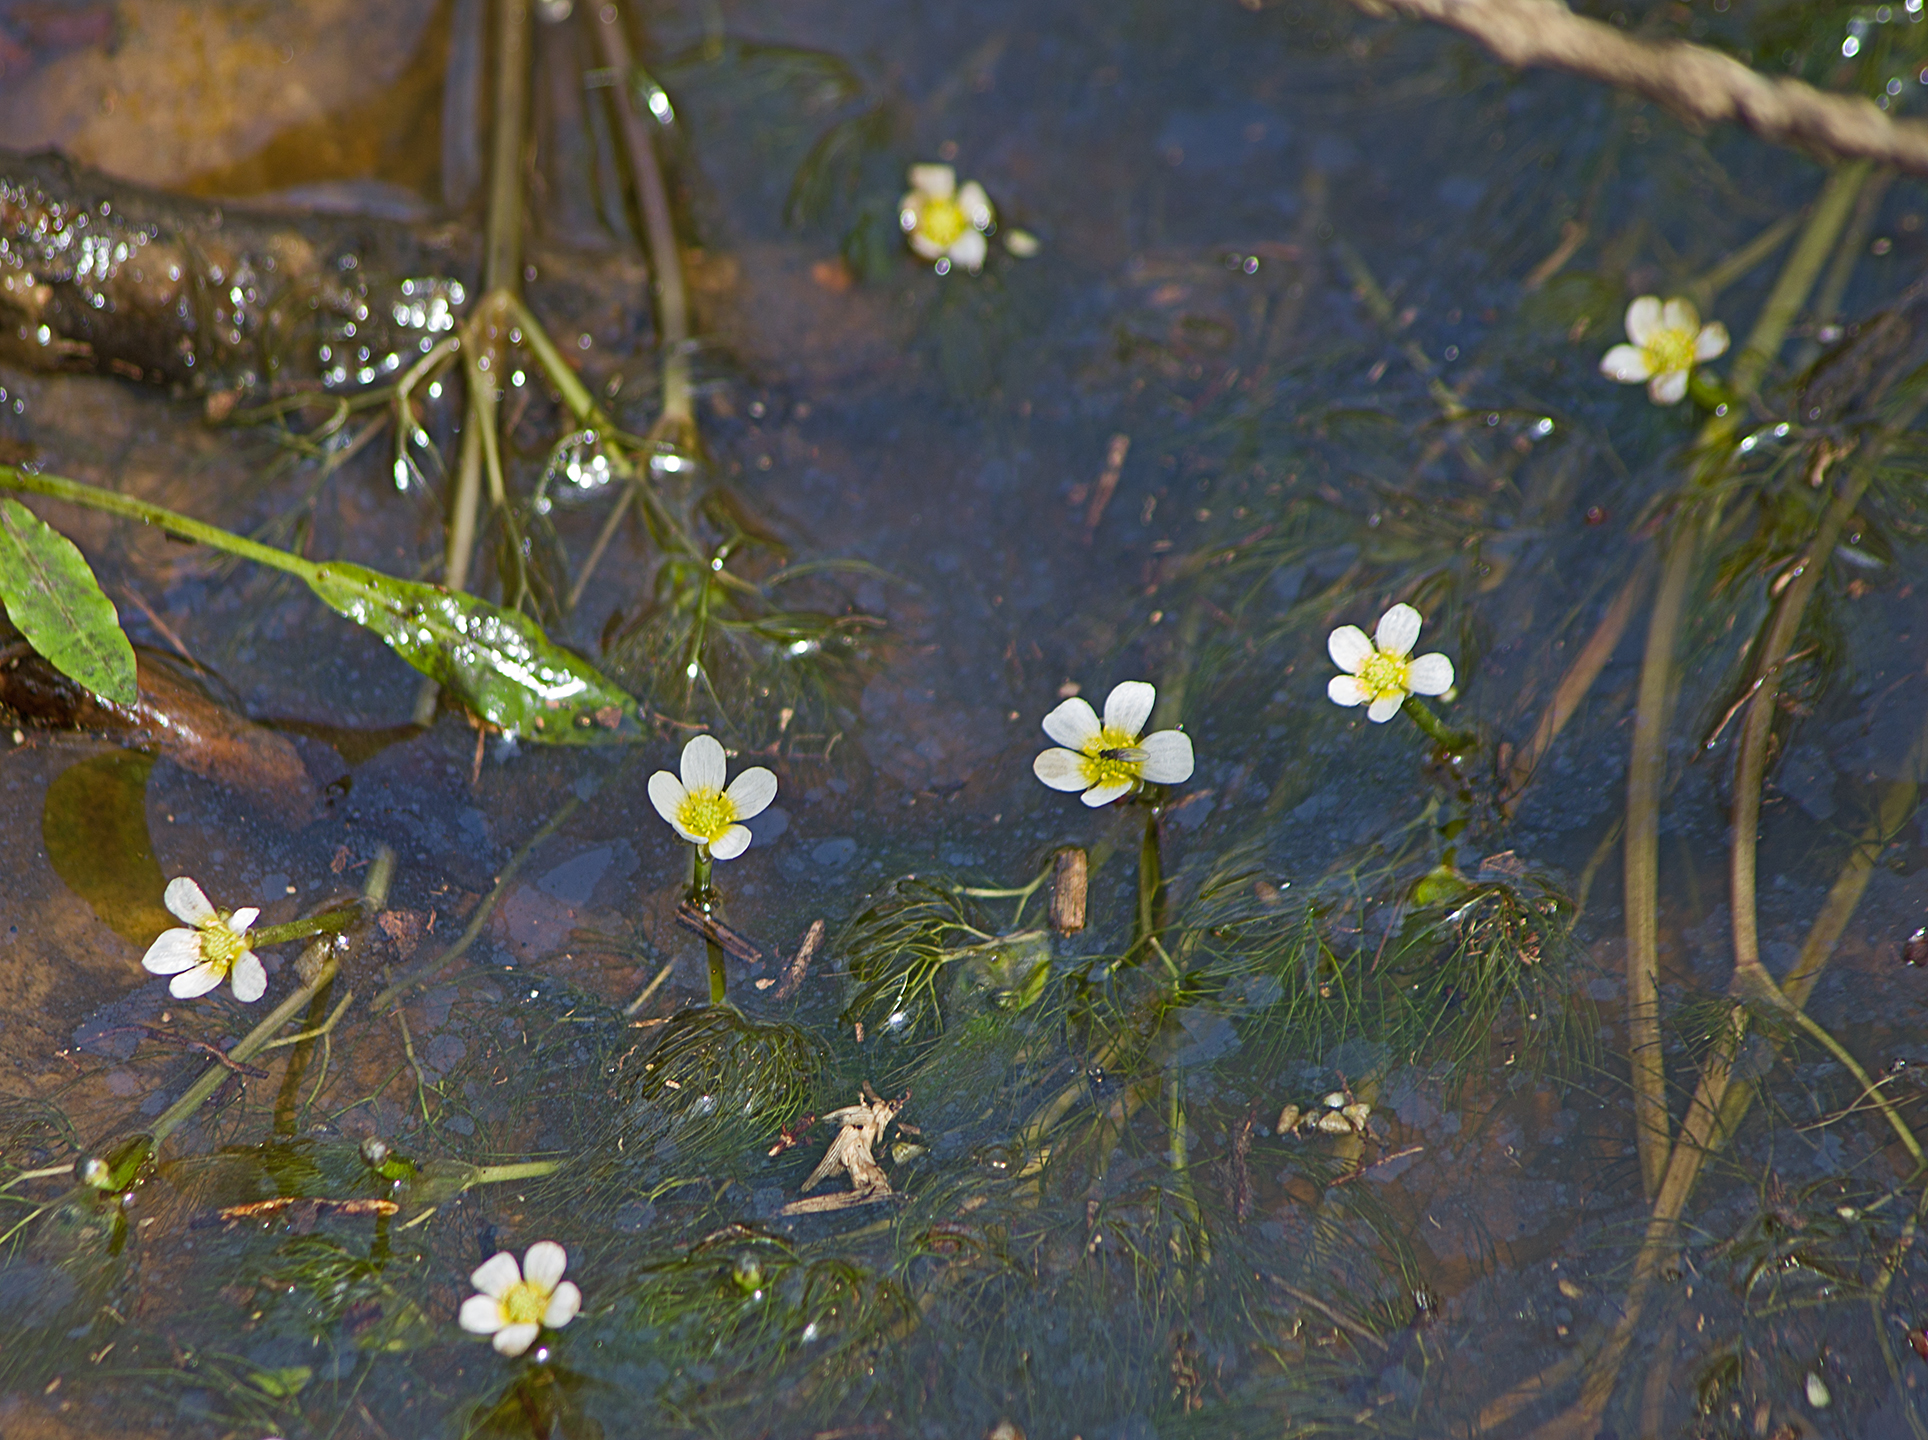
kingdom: Plantae
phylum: Tracheophyta
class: Magnoliopsida
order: Ranunculales
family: Ranunculaceae
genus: Ranunculus
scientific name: Ranunculus aquatilis
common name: Common water-crowfoot
